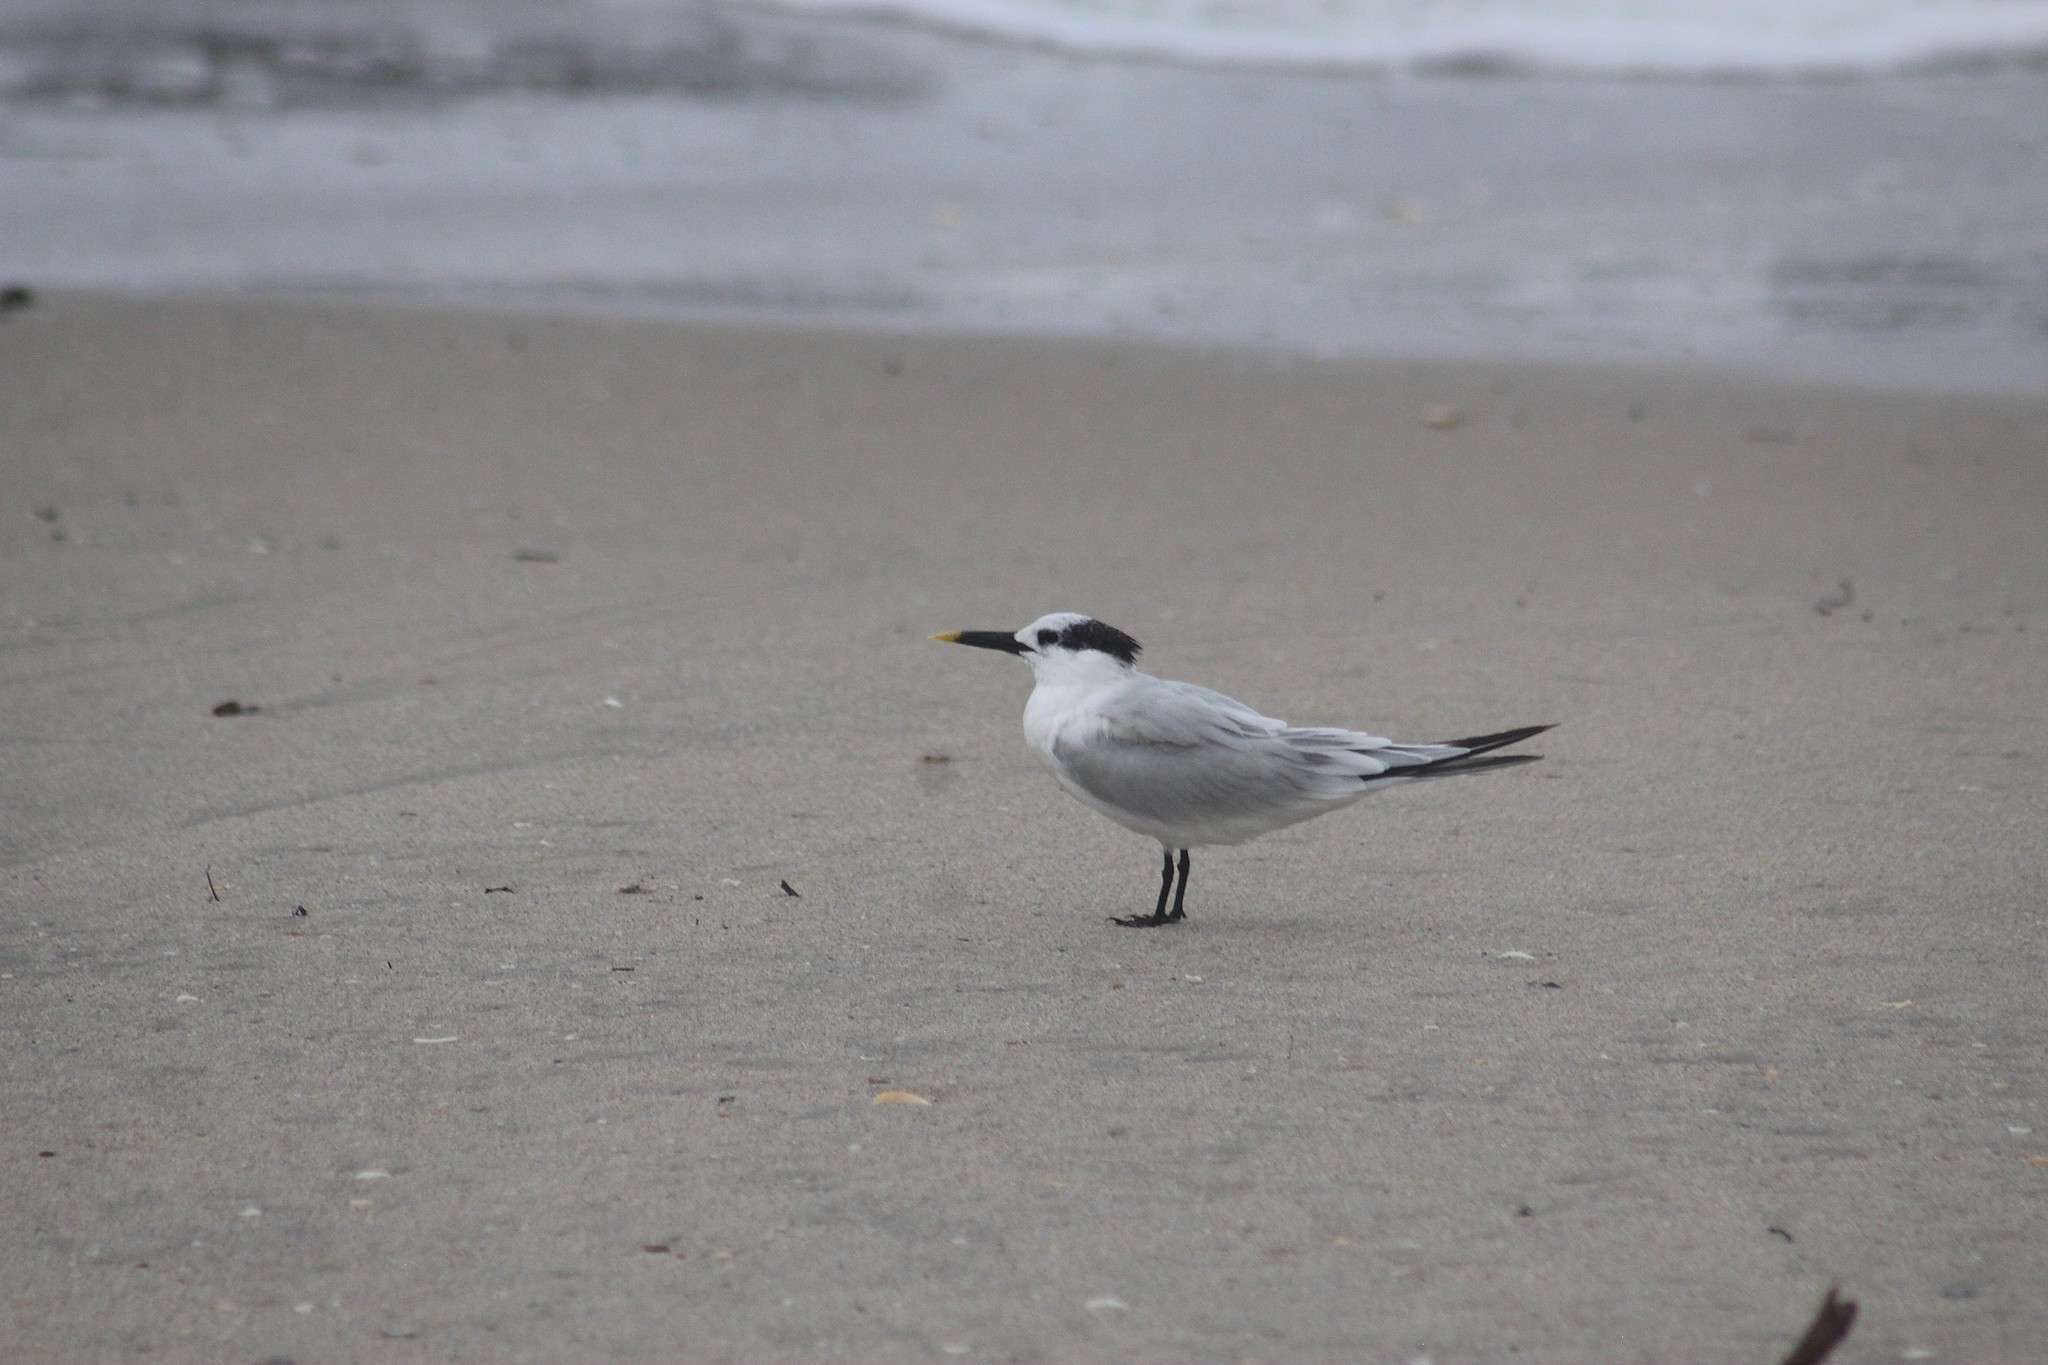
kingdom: Animalia
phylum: Chordata
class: Aves
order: Charadriiformes
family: Laridae
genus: Thalasseus
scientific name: Thalasseus sandvicensis
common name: Sandwich tern
